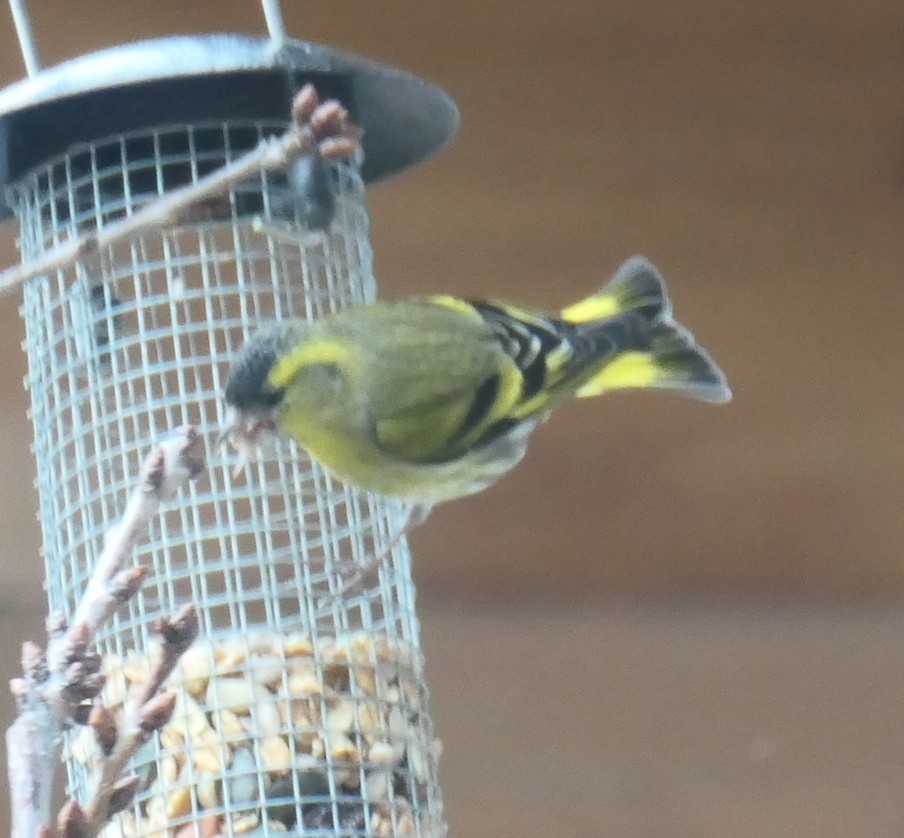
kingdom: Animalia
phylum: Chordata
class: Aves
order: Passeriformes
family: Fringillidae
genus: Spinus
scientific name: Spinus spinus
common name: Eurasian siskin
